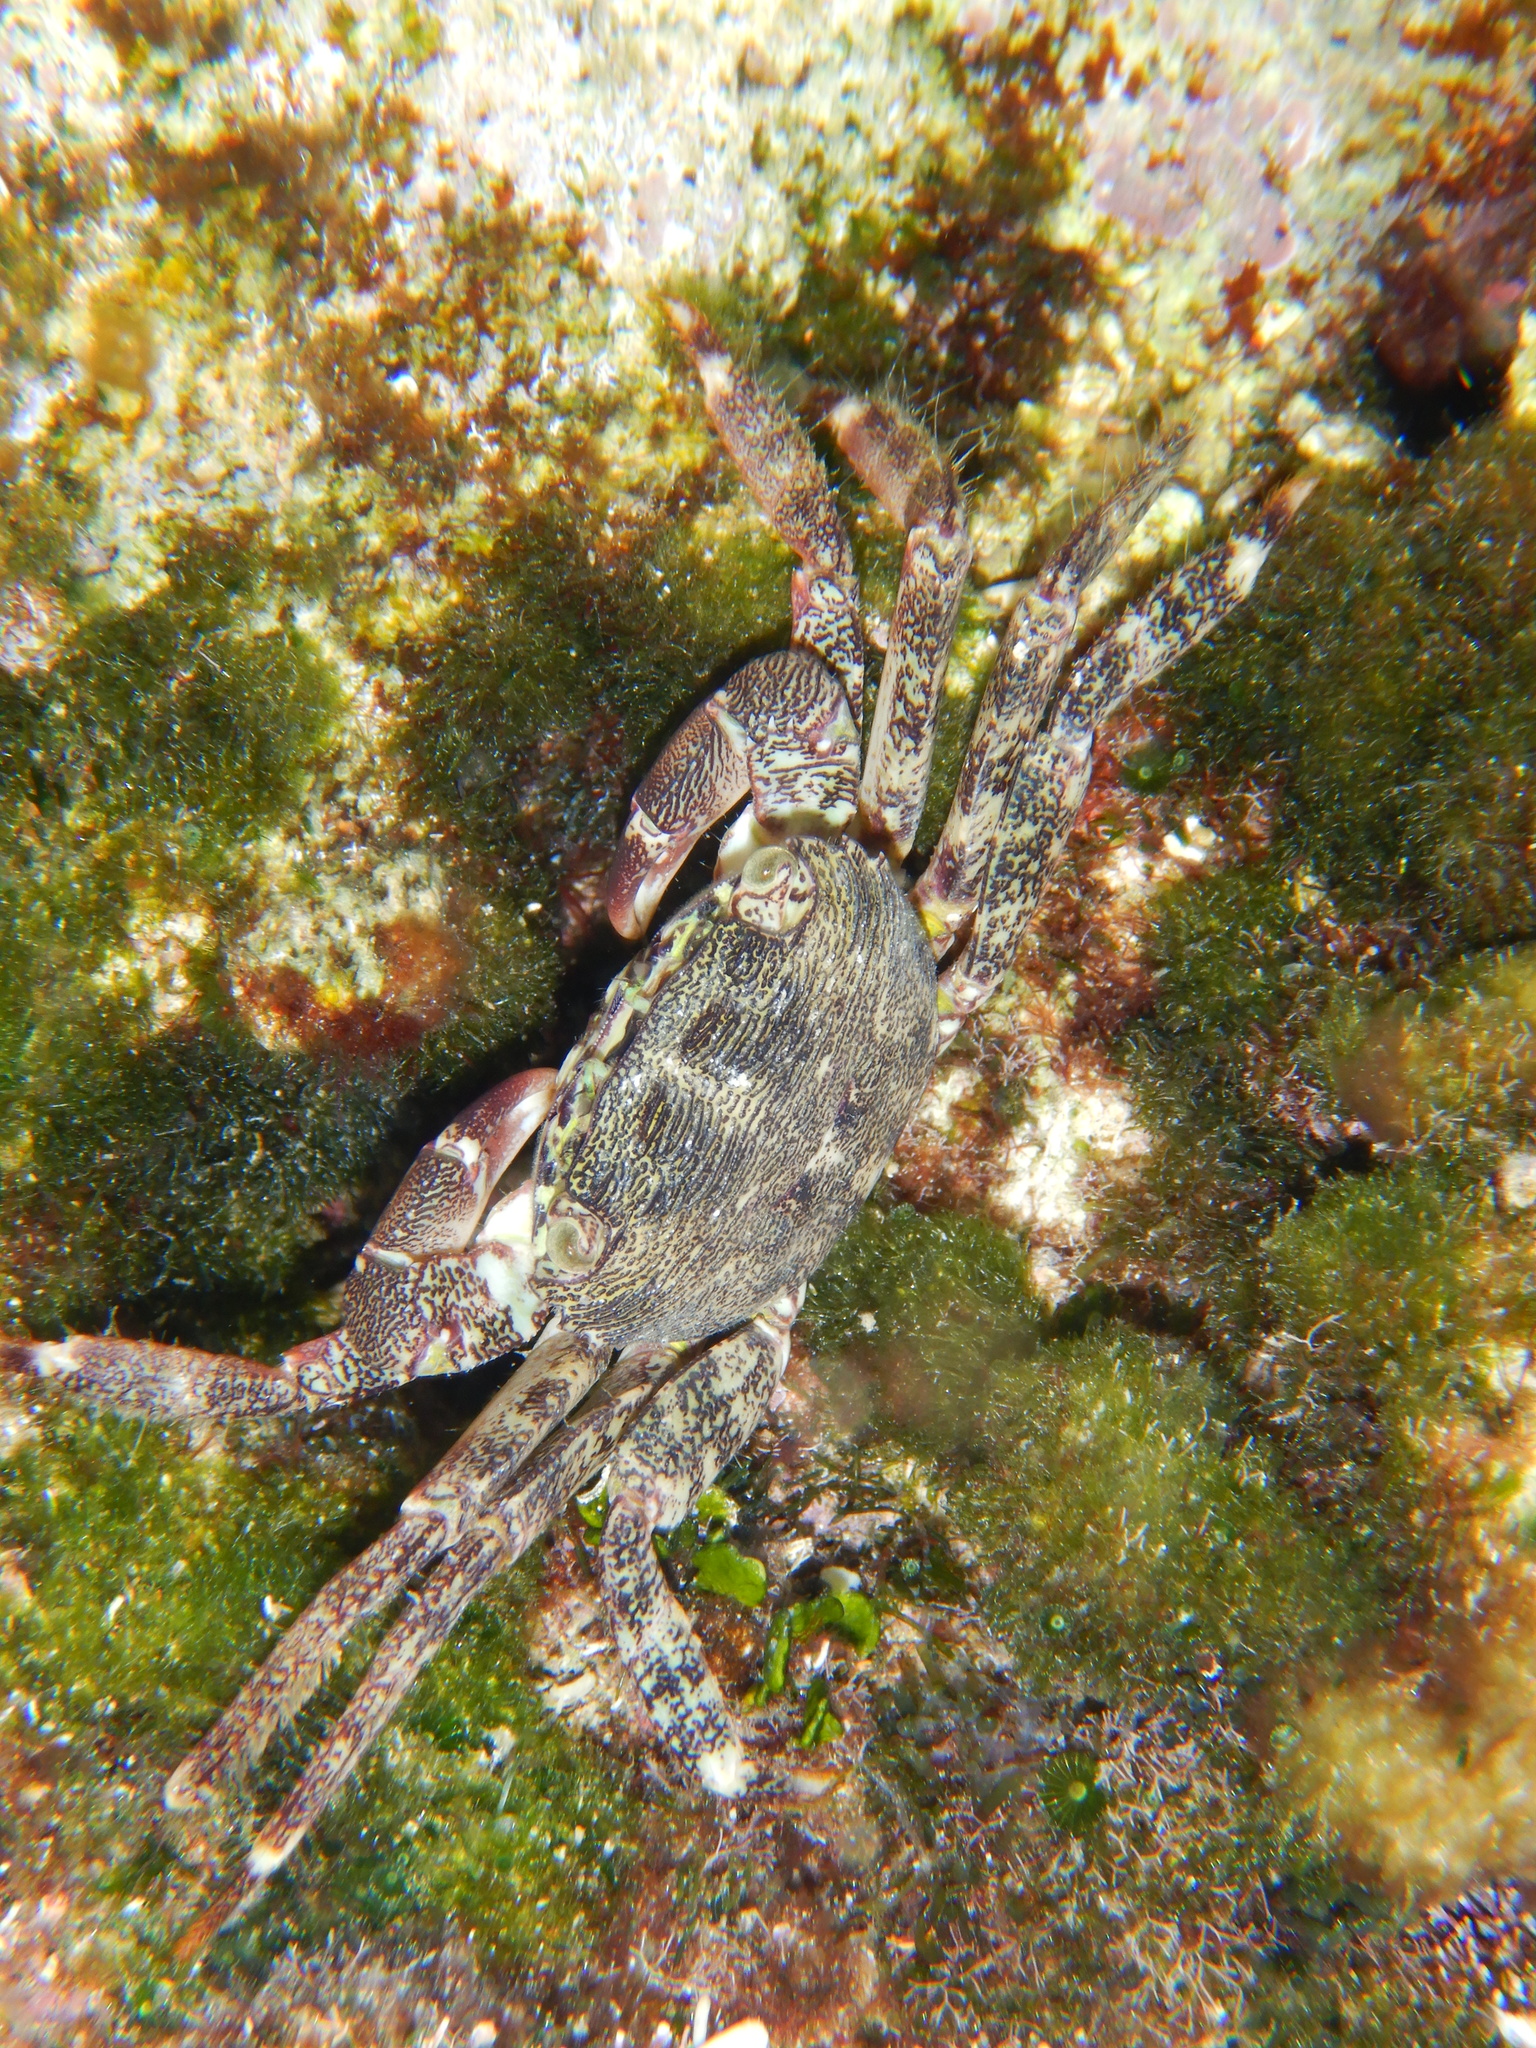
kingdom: Animalia
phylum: Arthropoda
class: Malacostraca
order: Decapoda
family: Grapsidae
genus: Pachygrapsus
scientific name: Pachygrapsus marmoratus
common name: Marbled rock crab
